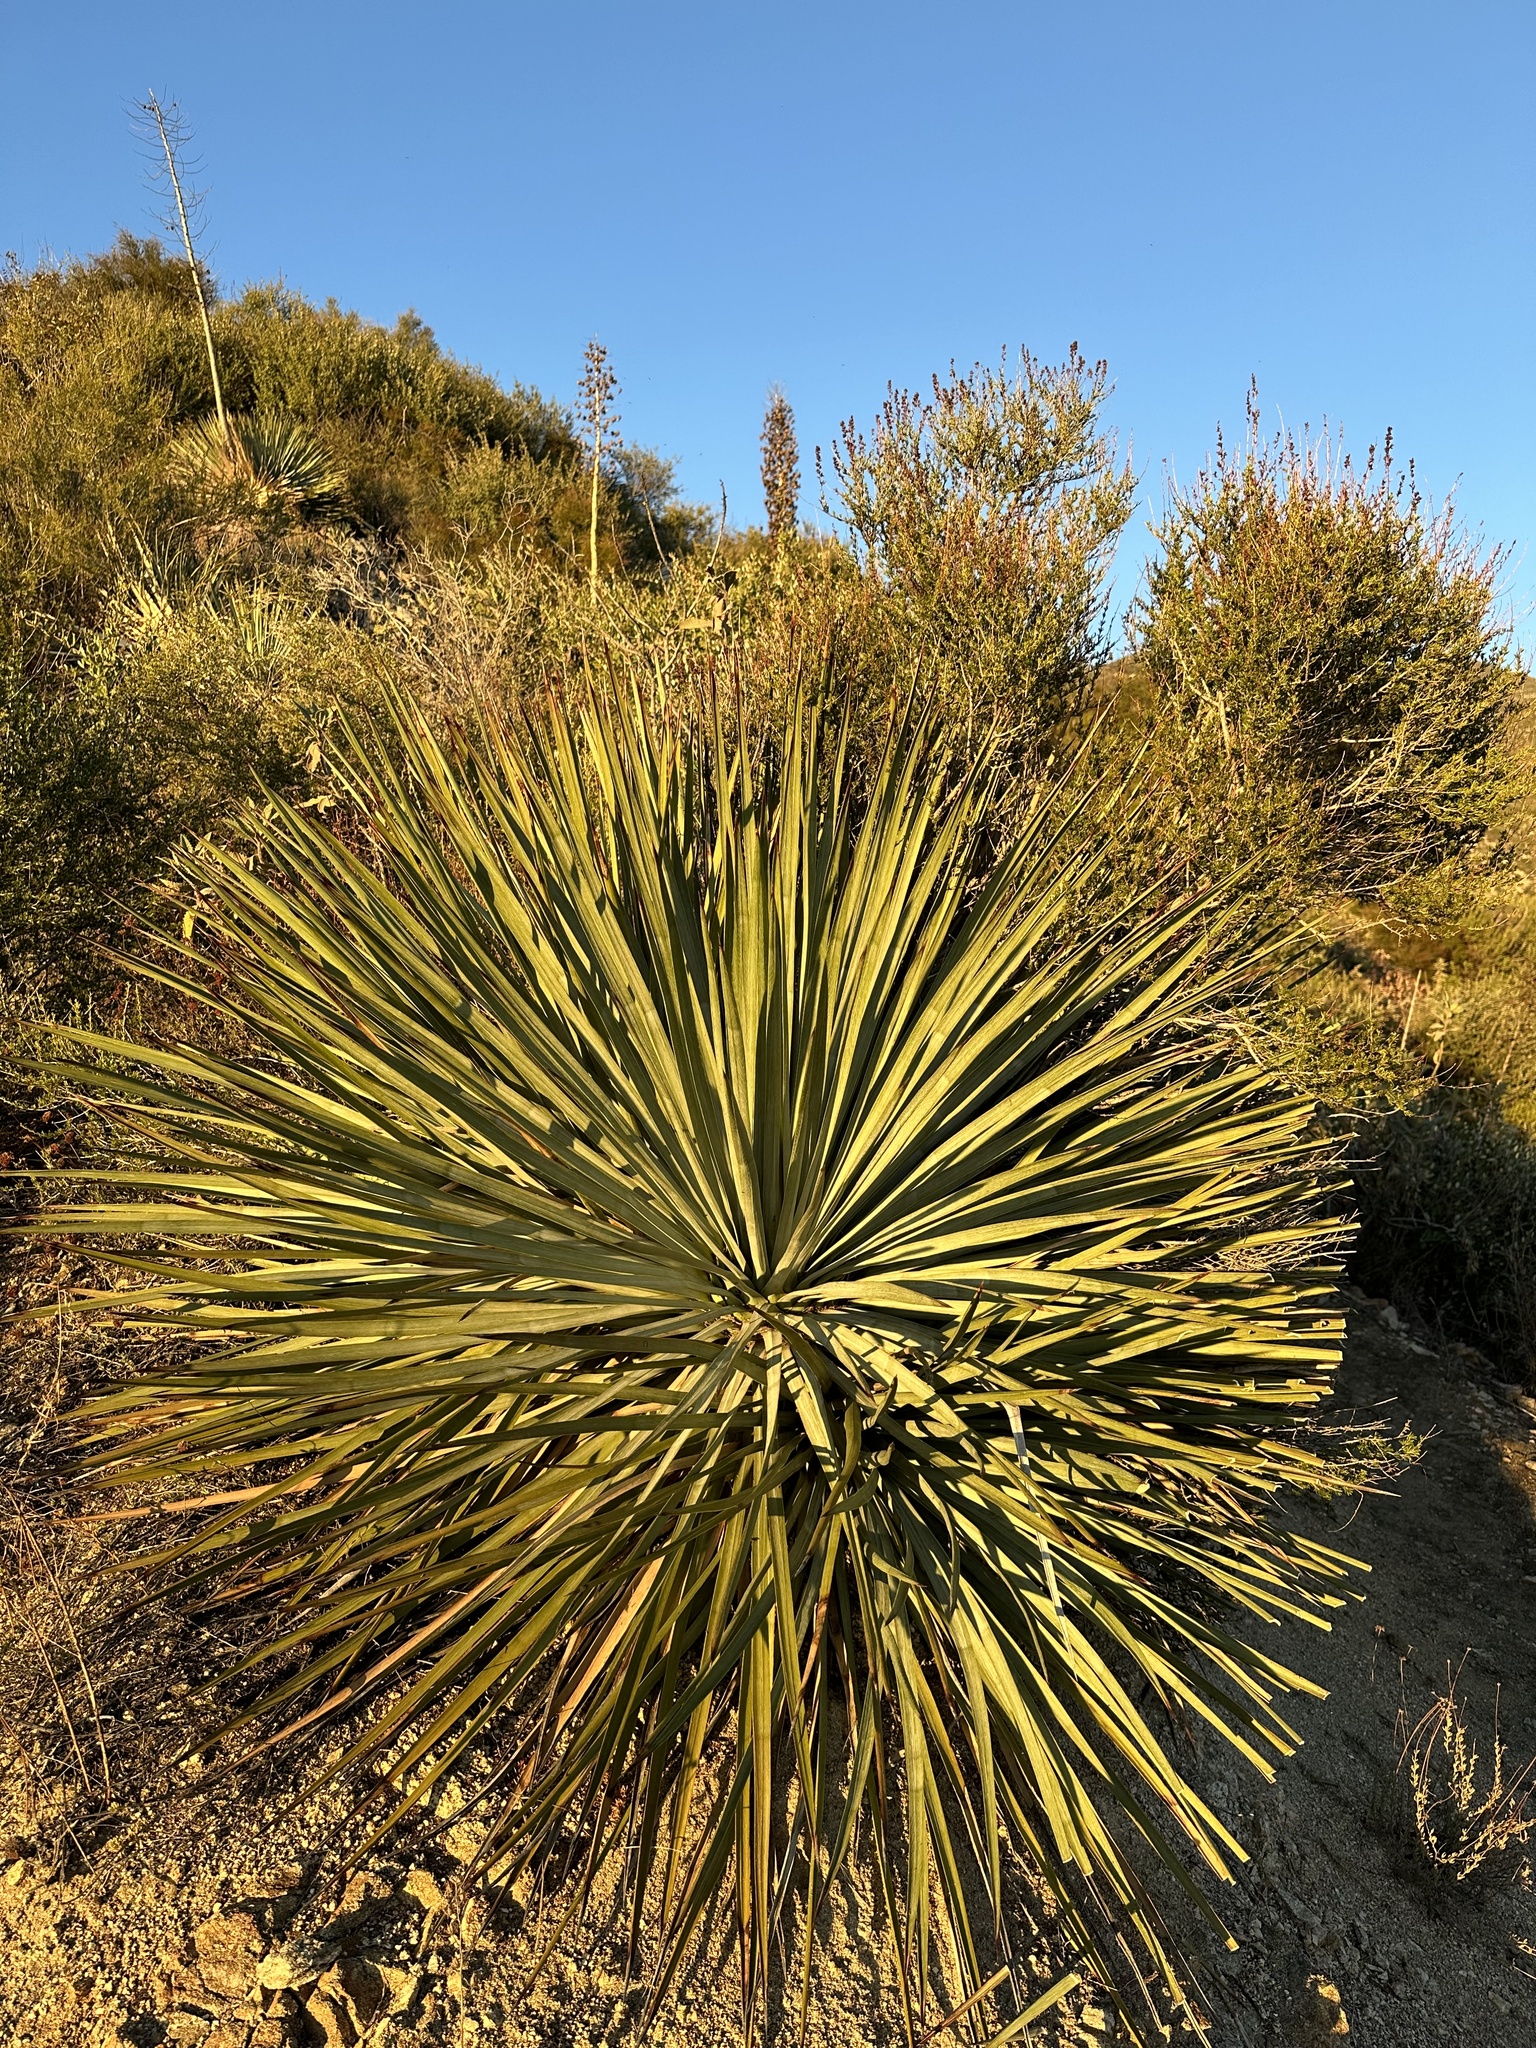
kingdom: Plantae
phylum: Tracheophyta
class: Liliopsida
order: Asparagales
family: Asparagaceae
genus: Hesperoyucca
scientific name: Hesperoyucca whipplei
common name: Our lord's-candle
